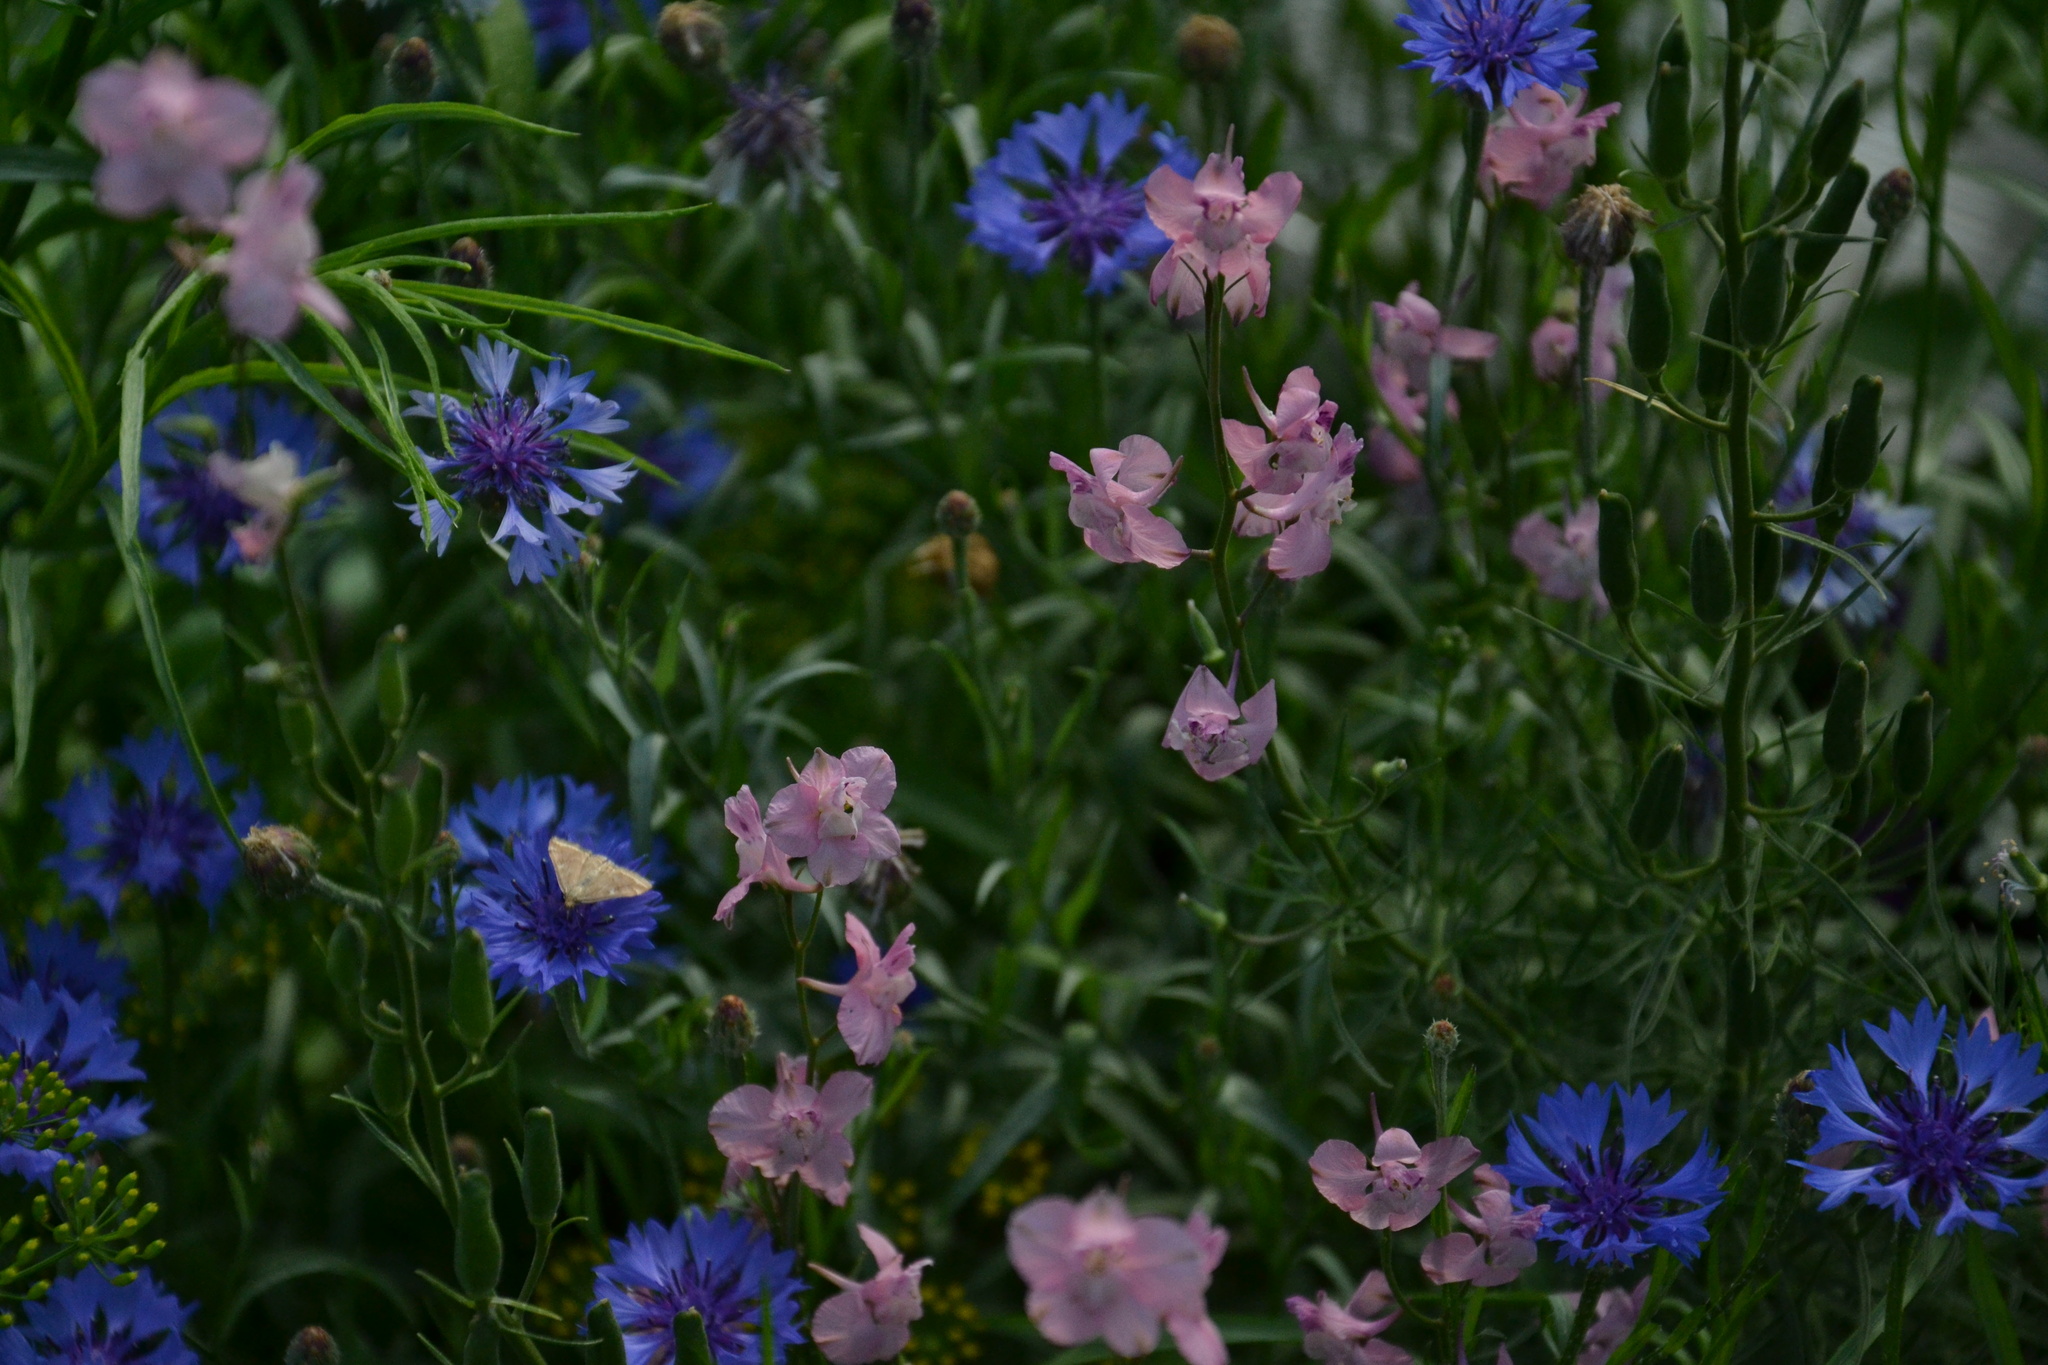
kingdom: Plantae
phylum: Tracheophyta
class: Magnoliopsida
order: Asterales
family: Asteraceae
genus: Centaurea
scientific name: Centaurea cyanus
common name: Cornflower
